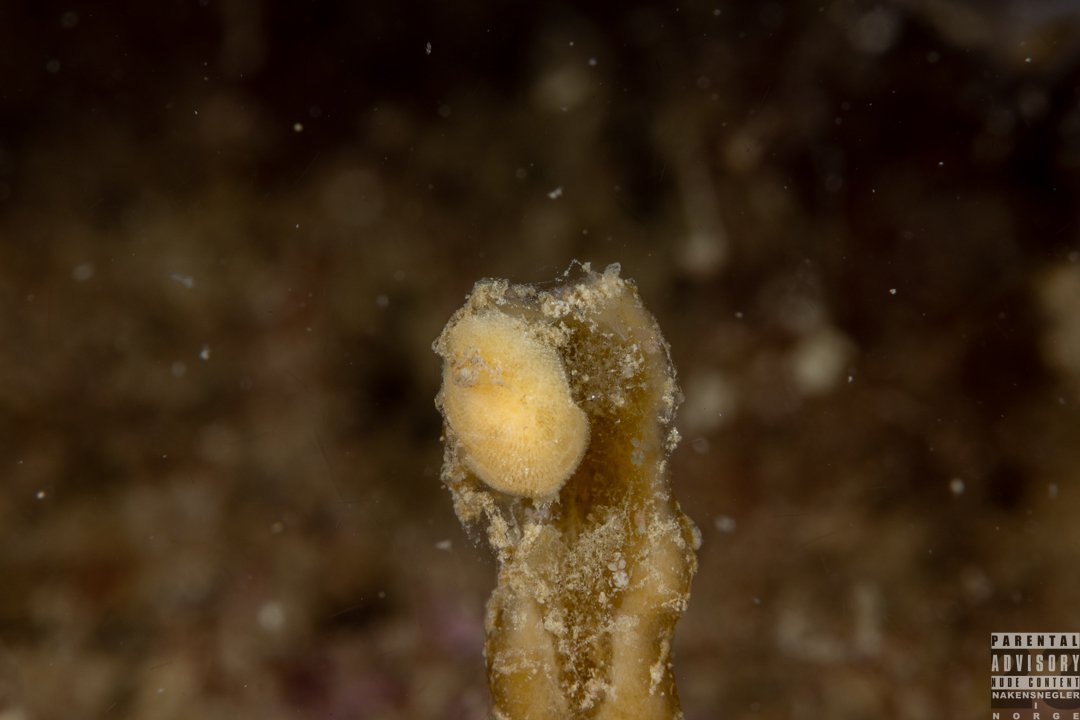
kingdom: Animalia
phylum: Mollusca
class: Gastropoda
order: Nudibranchia
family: Discodorididae
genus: Jorunna
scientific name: Jorunna tomentosa
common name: Grey sea slug
